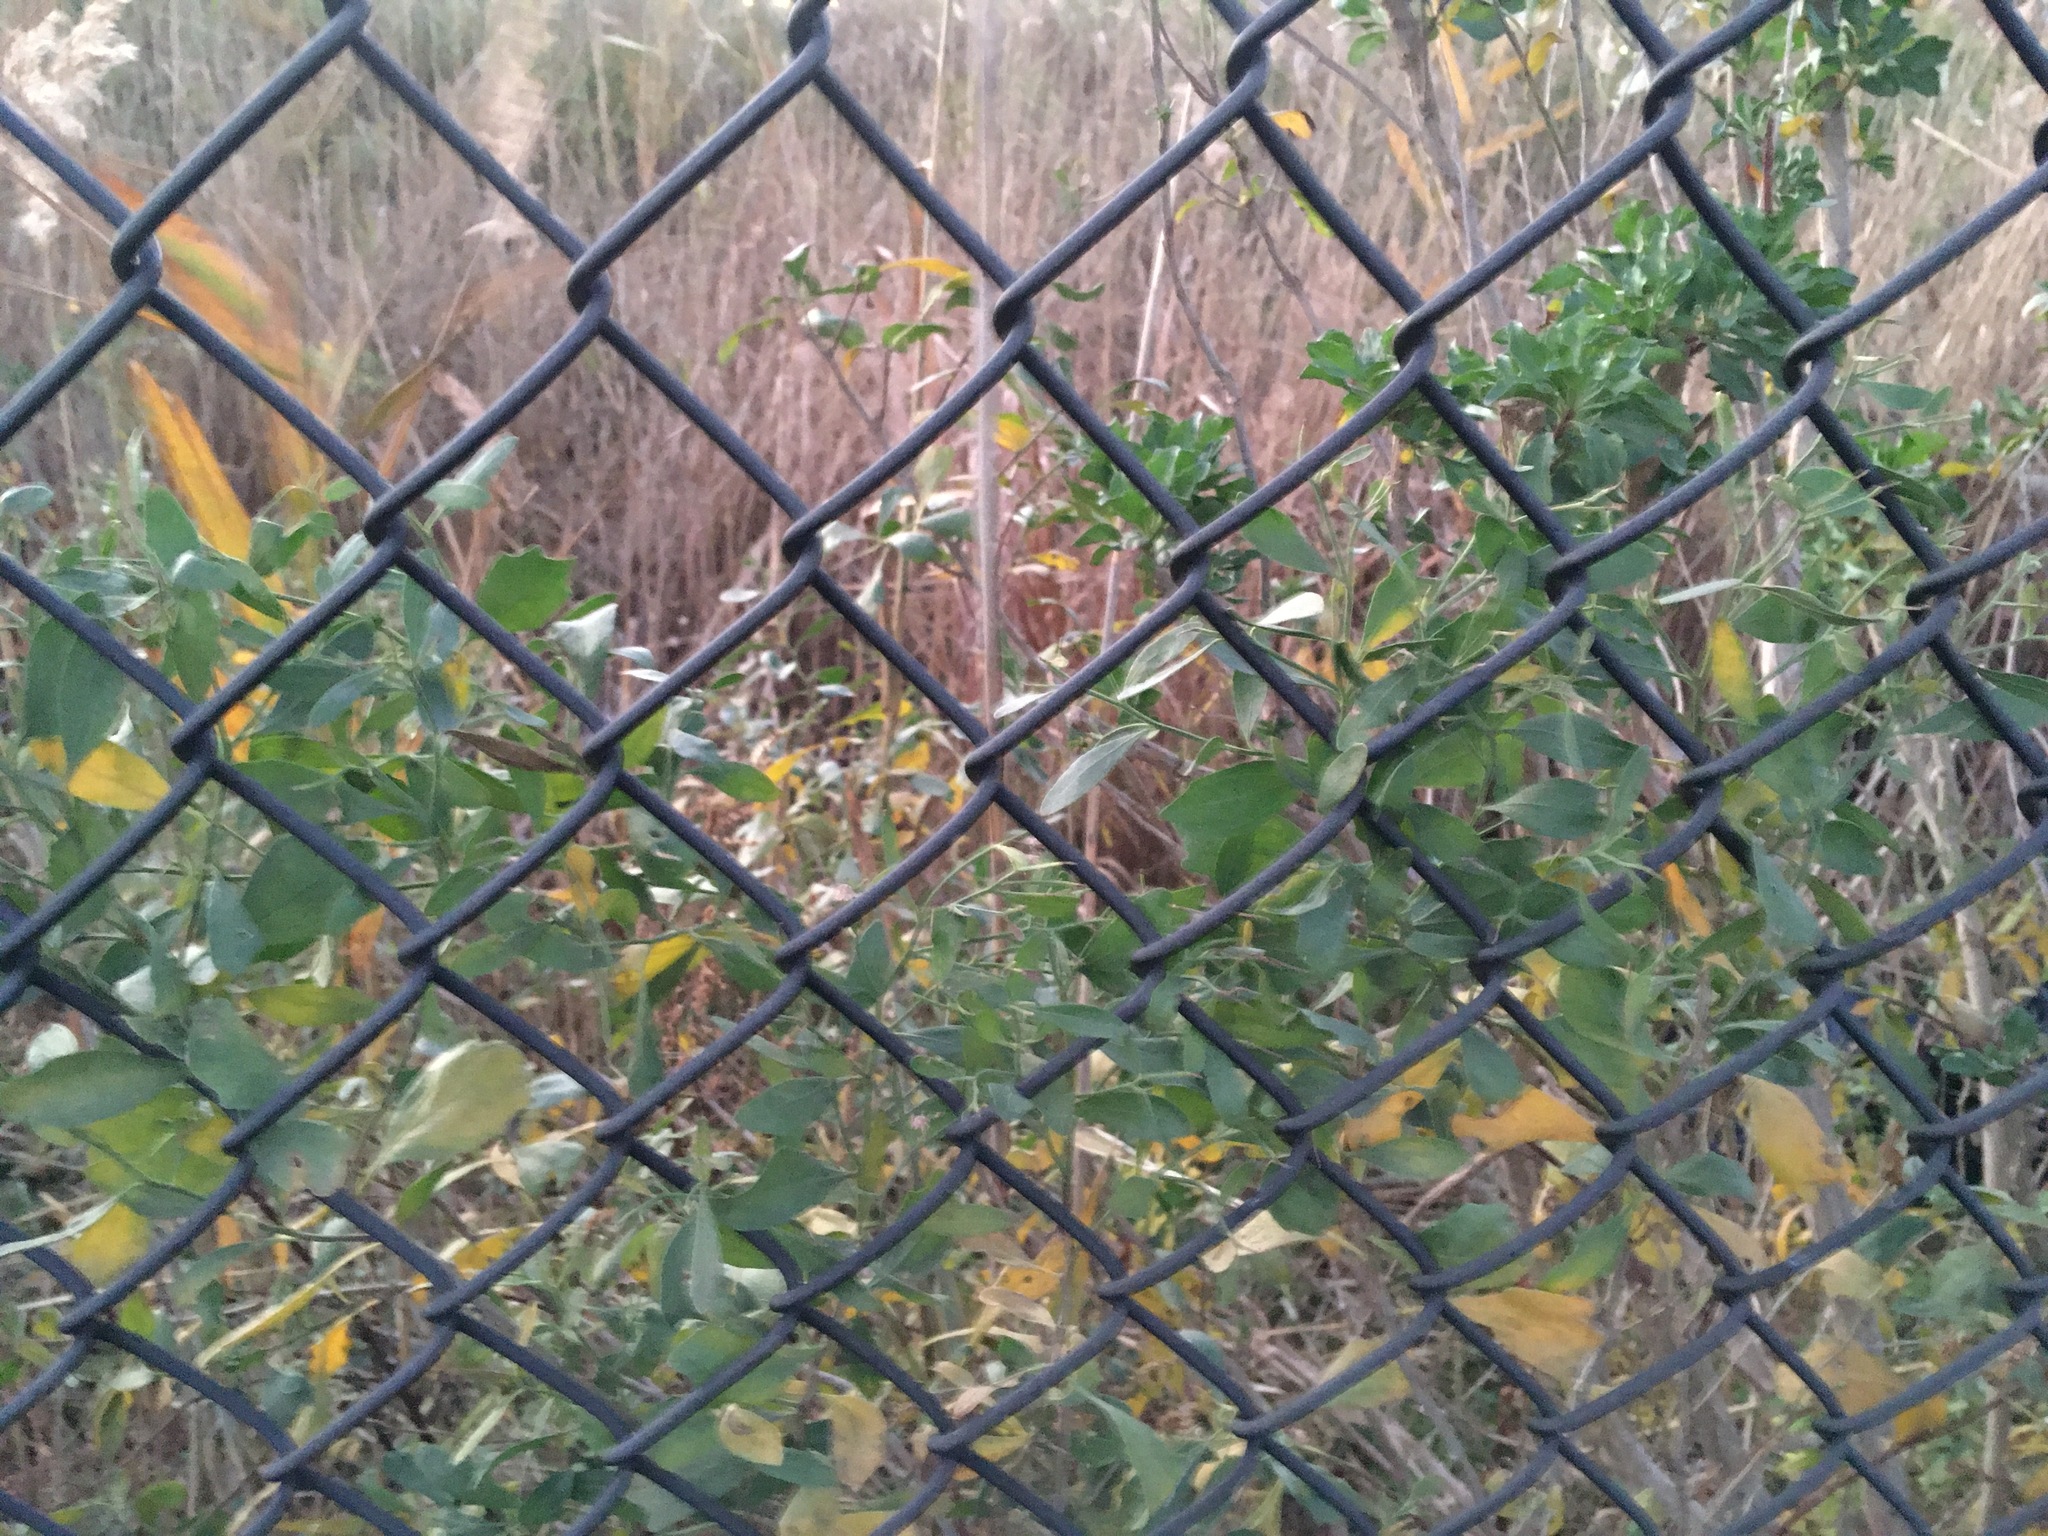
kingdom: Plantae
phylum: Tracheophyta
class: Magnoliopsida
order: Asterales
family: Asteraceae
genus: Baccharis
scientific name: Baccharis halimifolia
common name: Eastern baccharis
